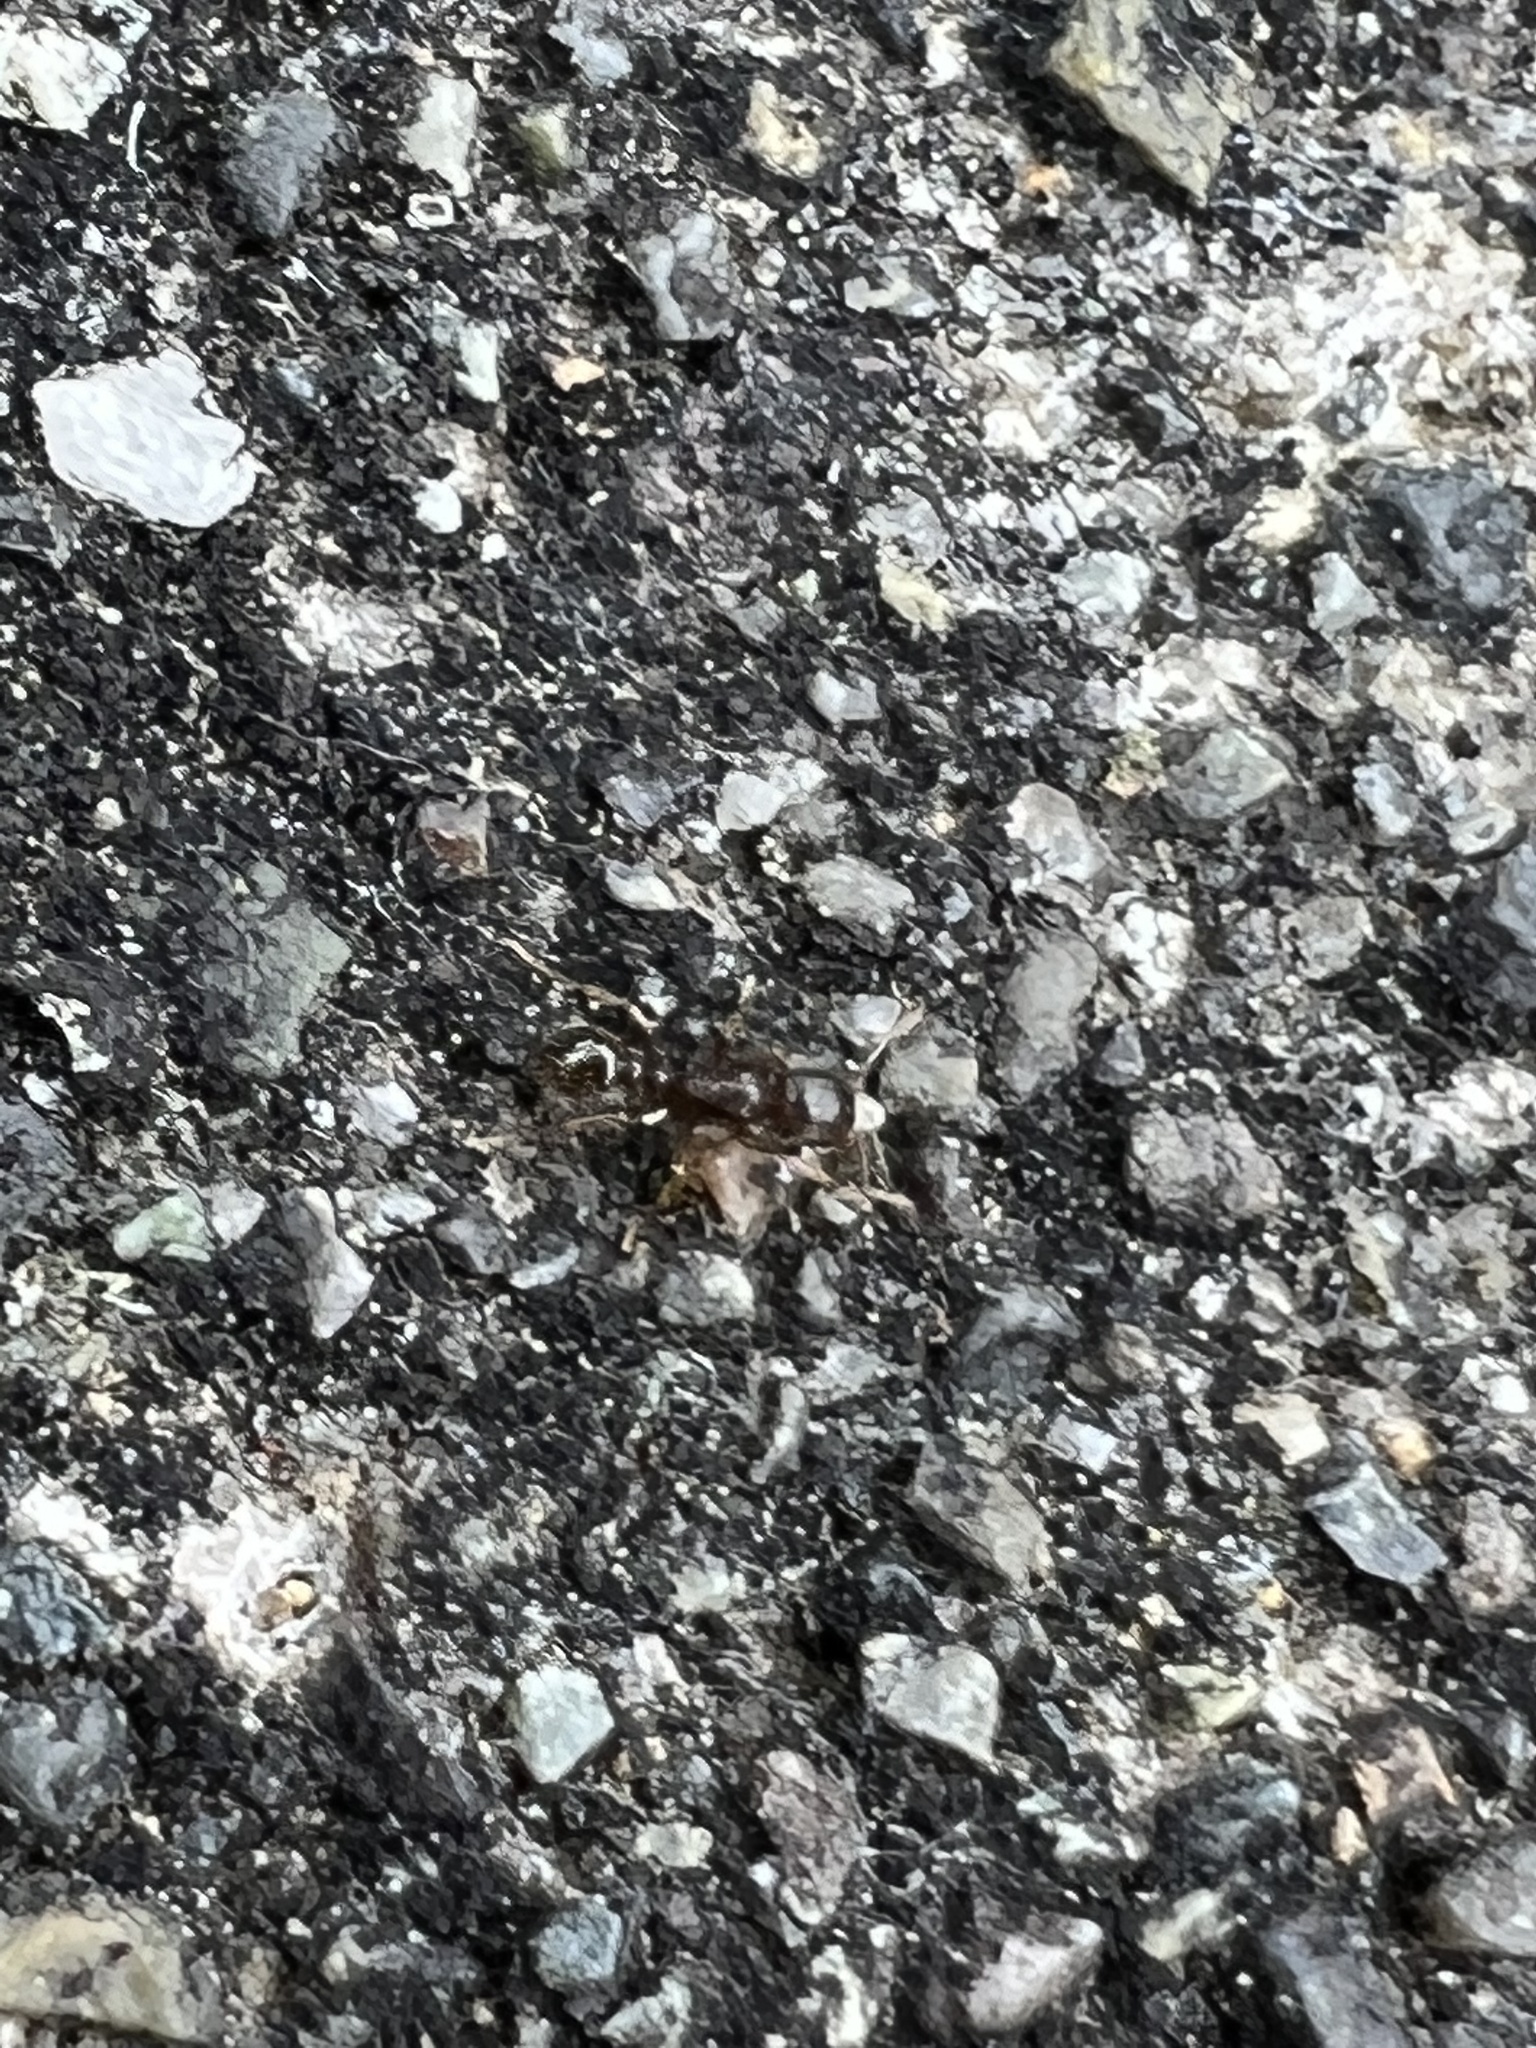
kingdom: Animalia
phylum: Arthropoda
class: Insecta
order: Hymenoptera
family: Formicidae
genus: Tetramorium
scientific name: Tetramorium immigrans
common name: Pavement ant
